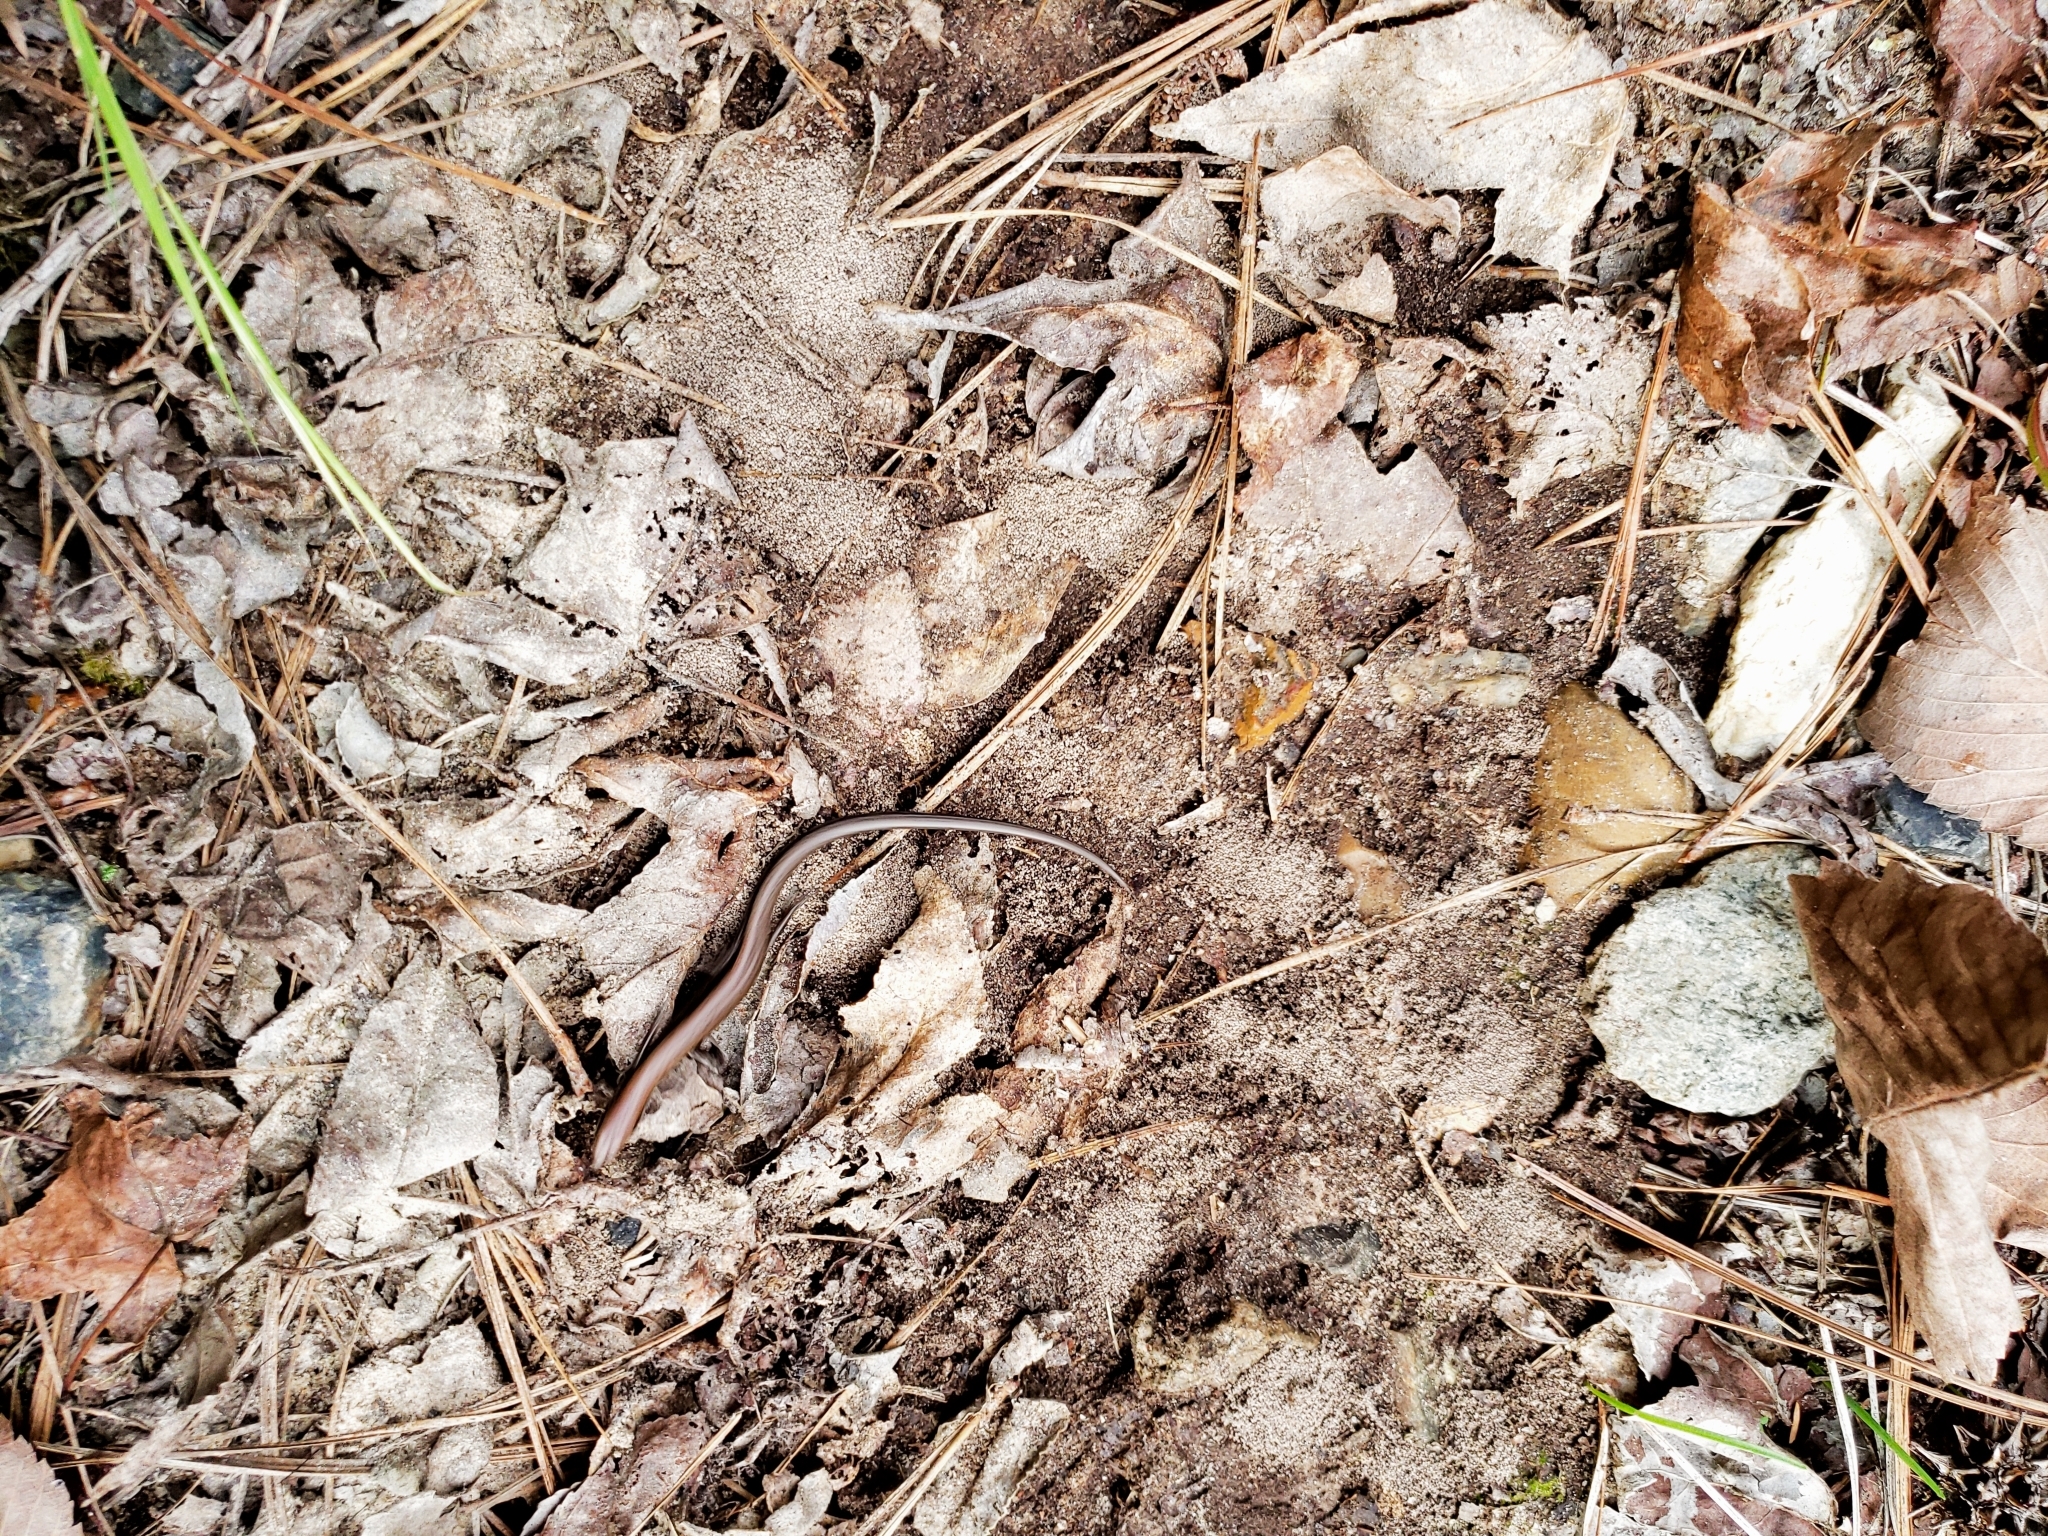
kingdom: Animalia
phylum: Chordata
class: Squamata
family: Scincidae
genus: Scincella
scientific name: Scincella lateralis
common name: Ground skink
